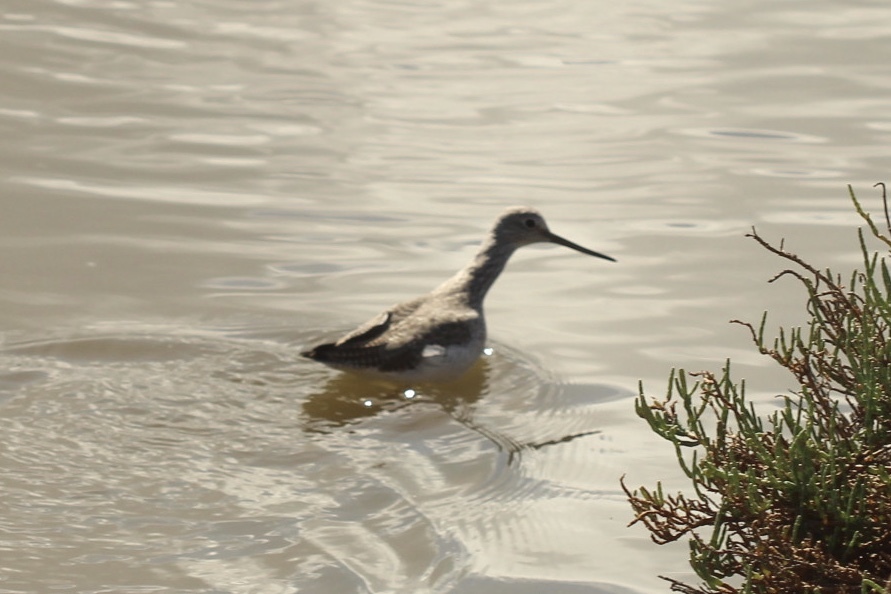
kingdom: Animalia
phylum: Chordata
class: Aves
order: Charadriiformes
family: Scolopacidae
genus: Tringa
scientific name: Tringa melanoleuca
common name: Greater yellowlegs
